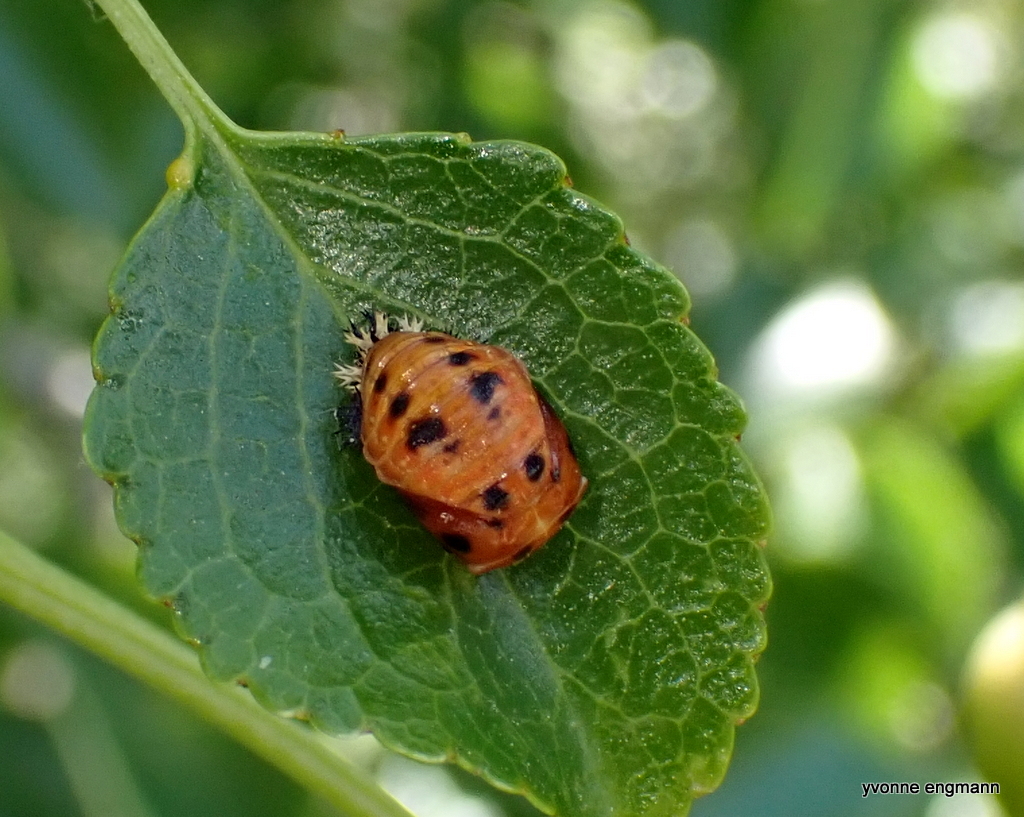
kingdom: Animalia
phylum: Arthropoda
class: Insecta
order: Coleoptera
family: Coccinellidae
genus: Harmonia
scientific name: Harmonia axyridis
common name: Harlequin ladybird
